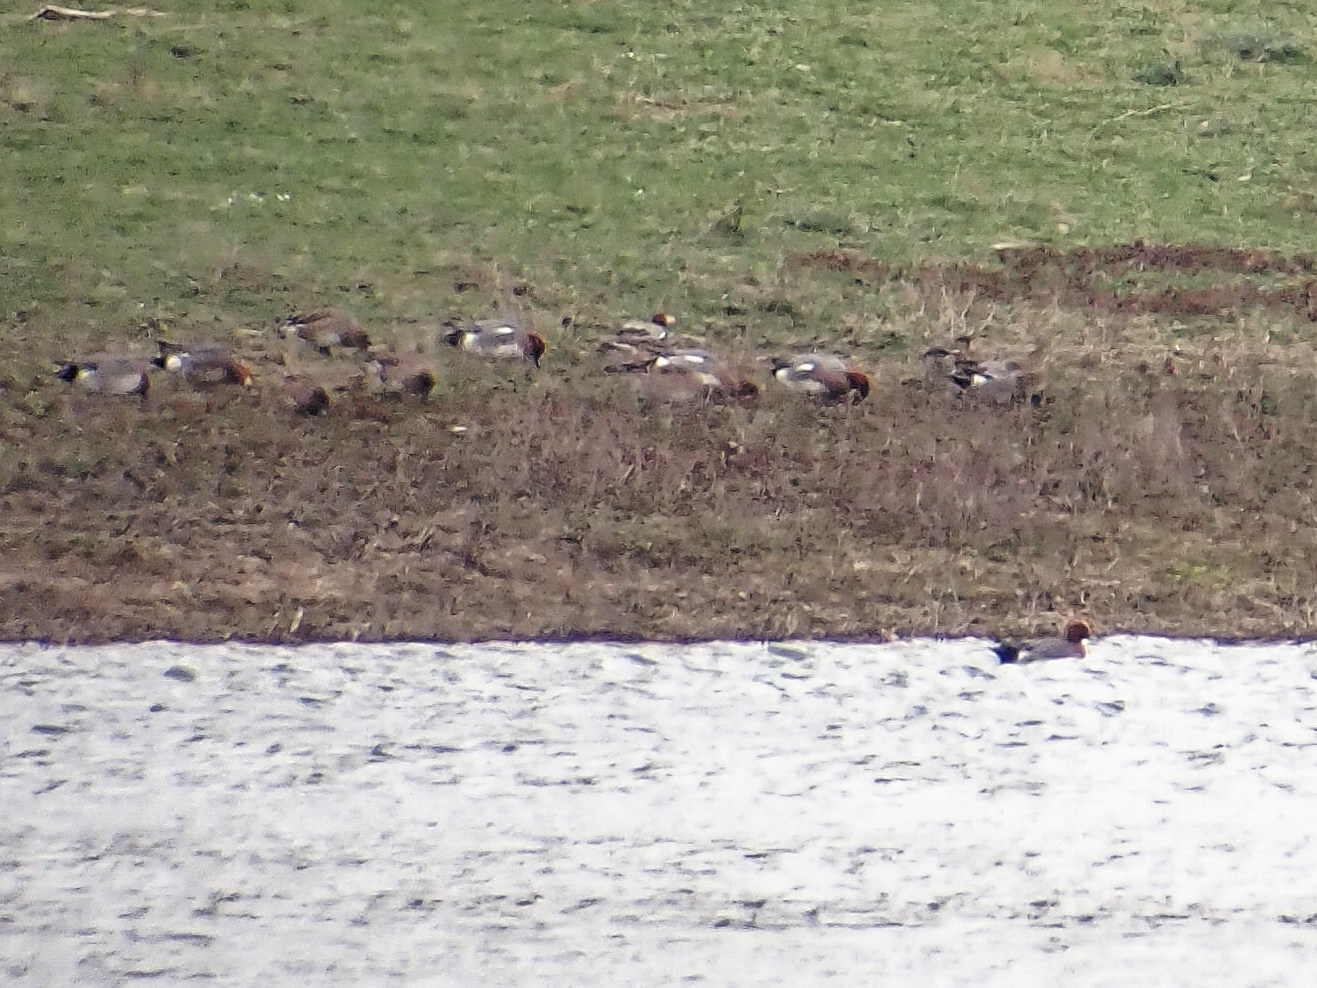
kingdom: Animalia
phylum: Chordata
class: Aves
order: Anseriformes
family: Anatidae
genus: Mareca
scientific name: Mareca penelope
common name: Eurasian wigeon
